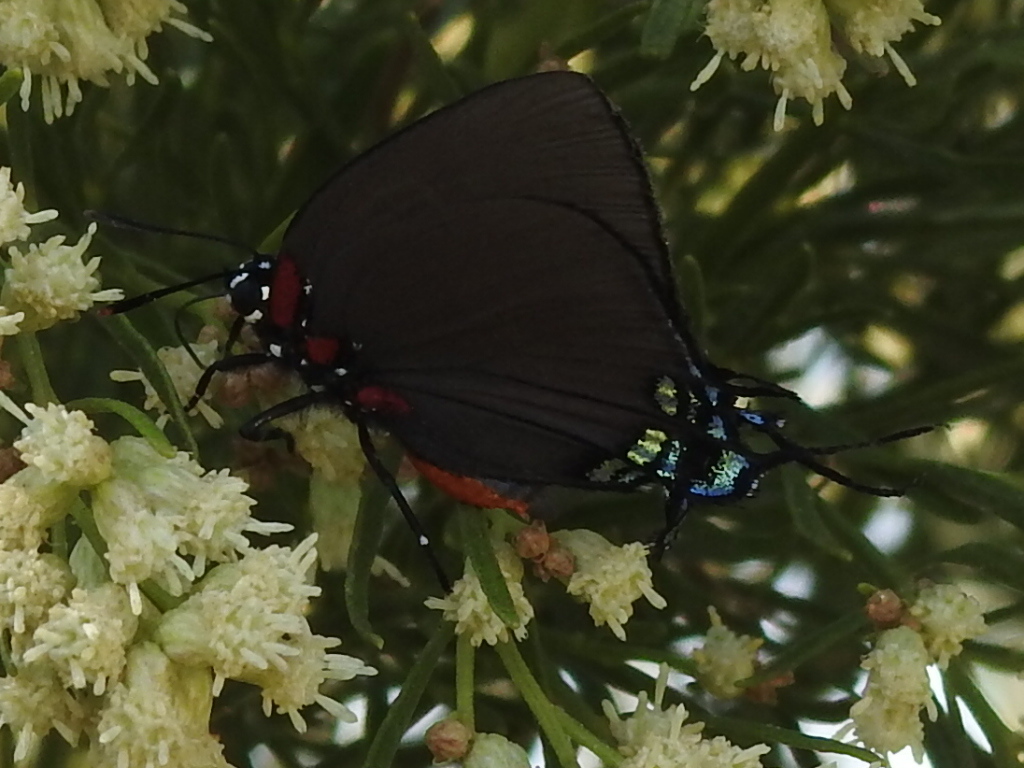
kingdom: Animalia
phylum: Arthropoda
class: Insecta
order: Lepidoptera
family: Lycaenidae
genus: Atlides
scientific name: Atlides halesus
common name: Great purple hairstreak
